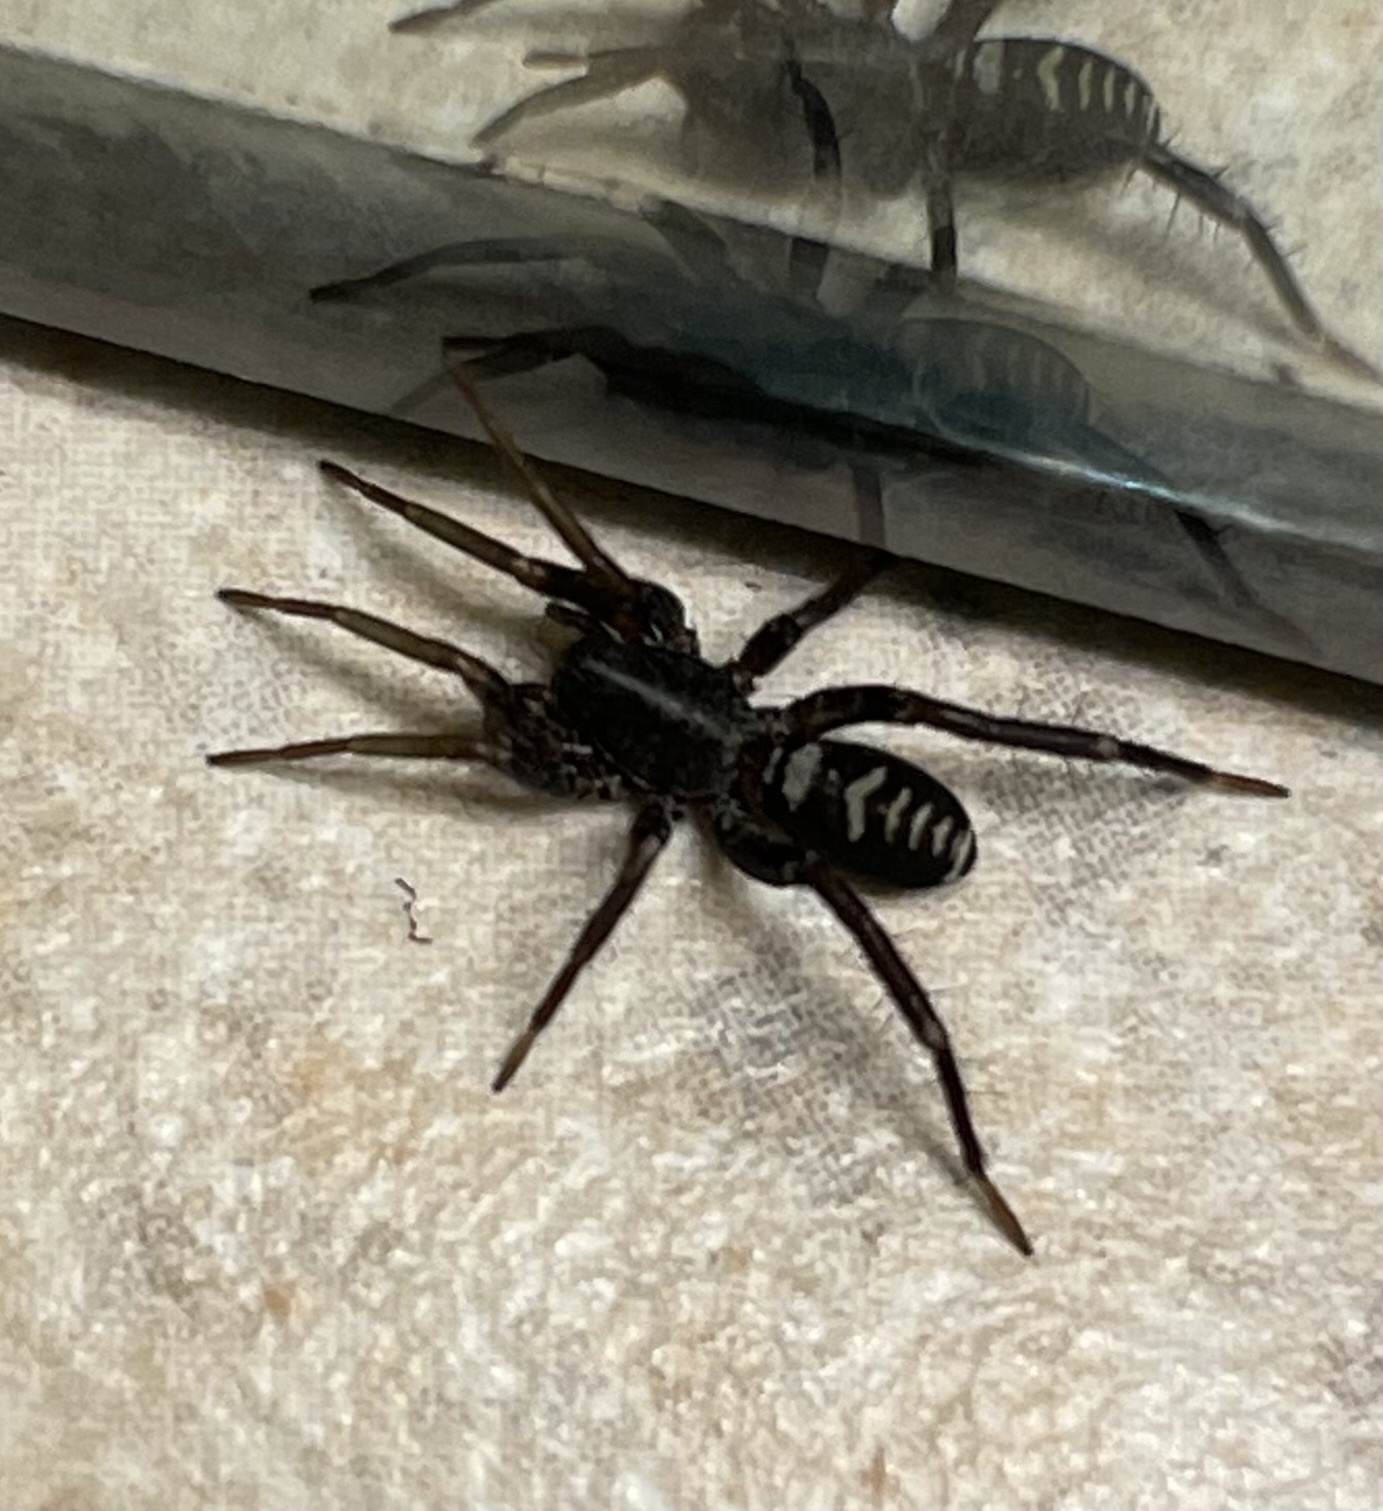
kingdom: Animalia
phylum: Arthropoda
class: Arachnida
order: Araneae
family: Corinnidae
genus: Castianeira
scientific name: Castianeira longipalpa
